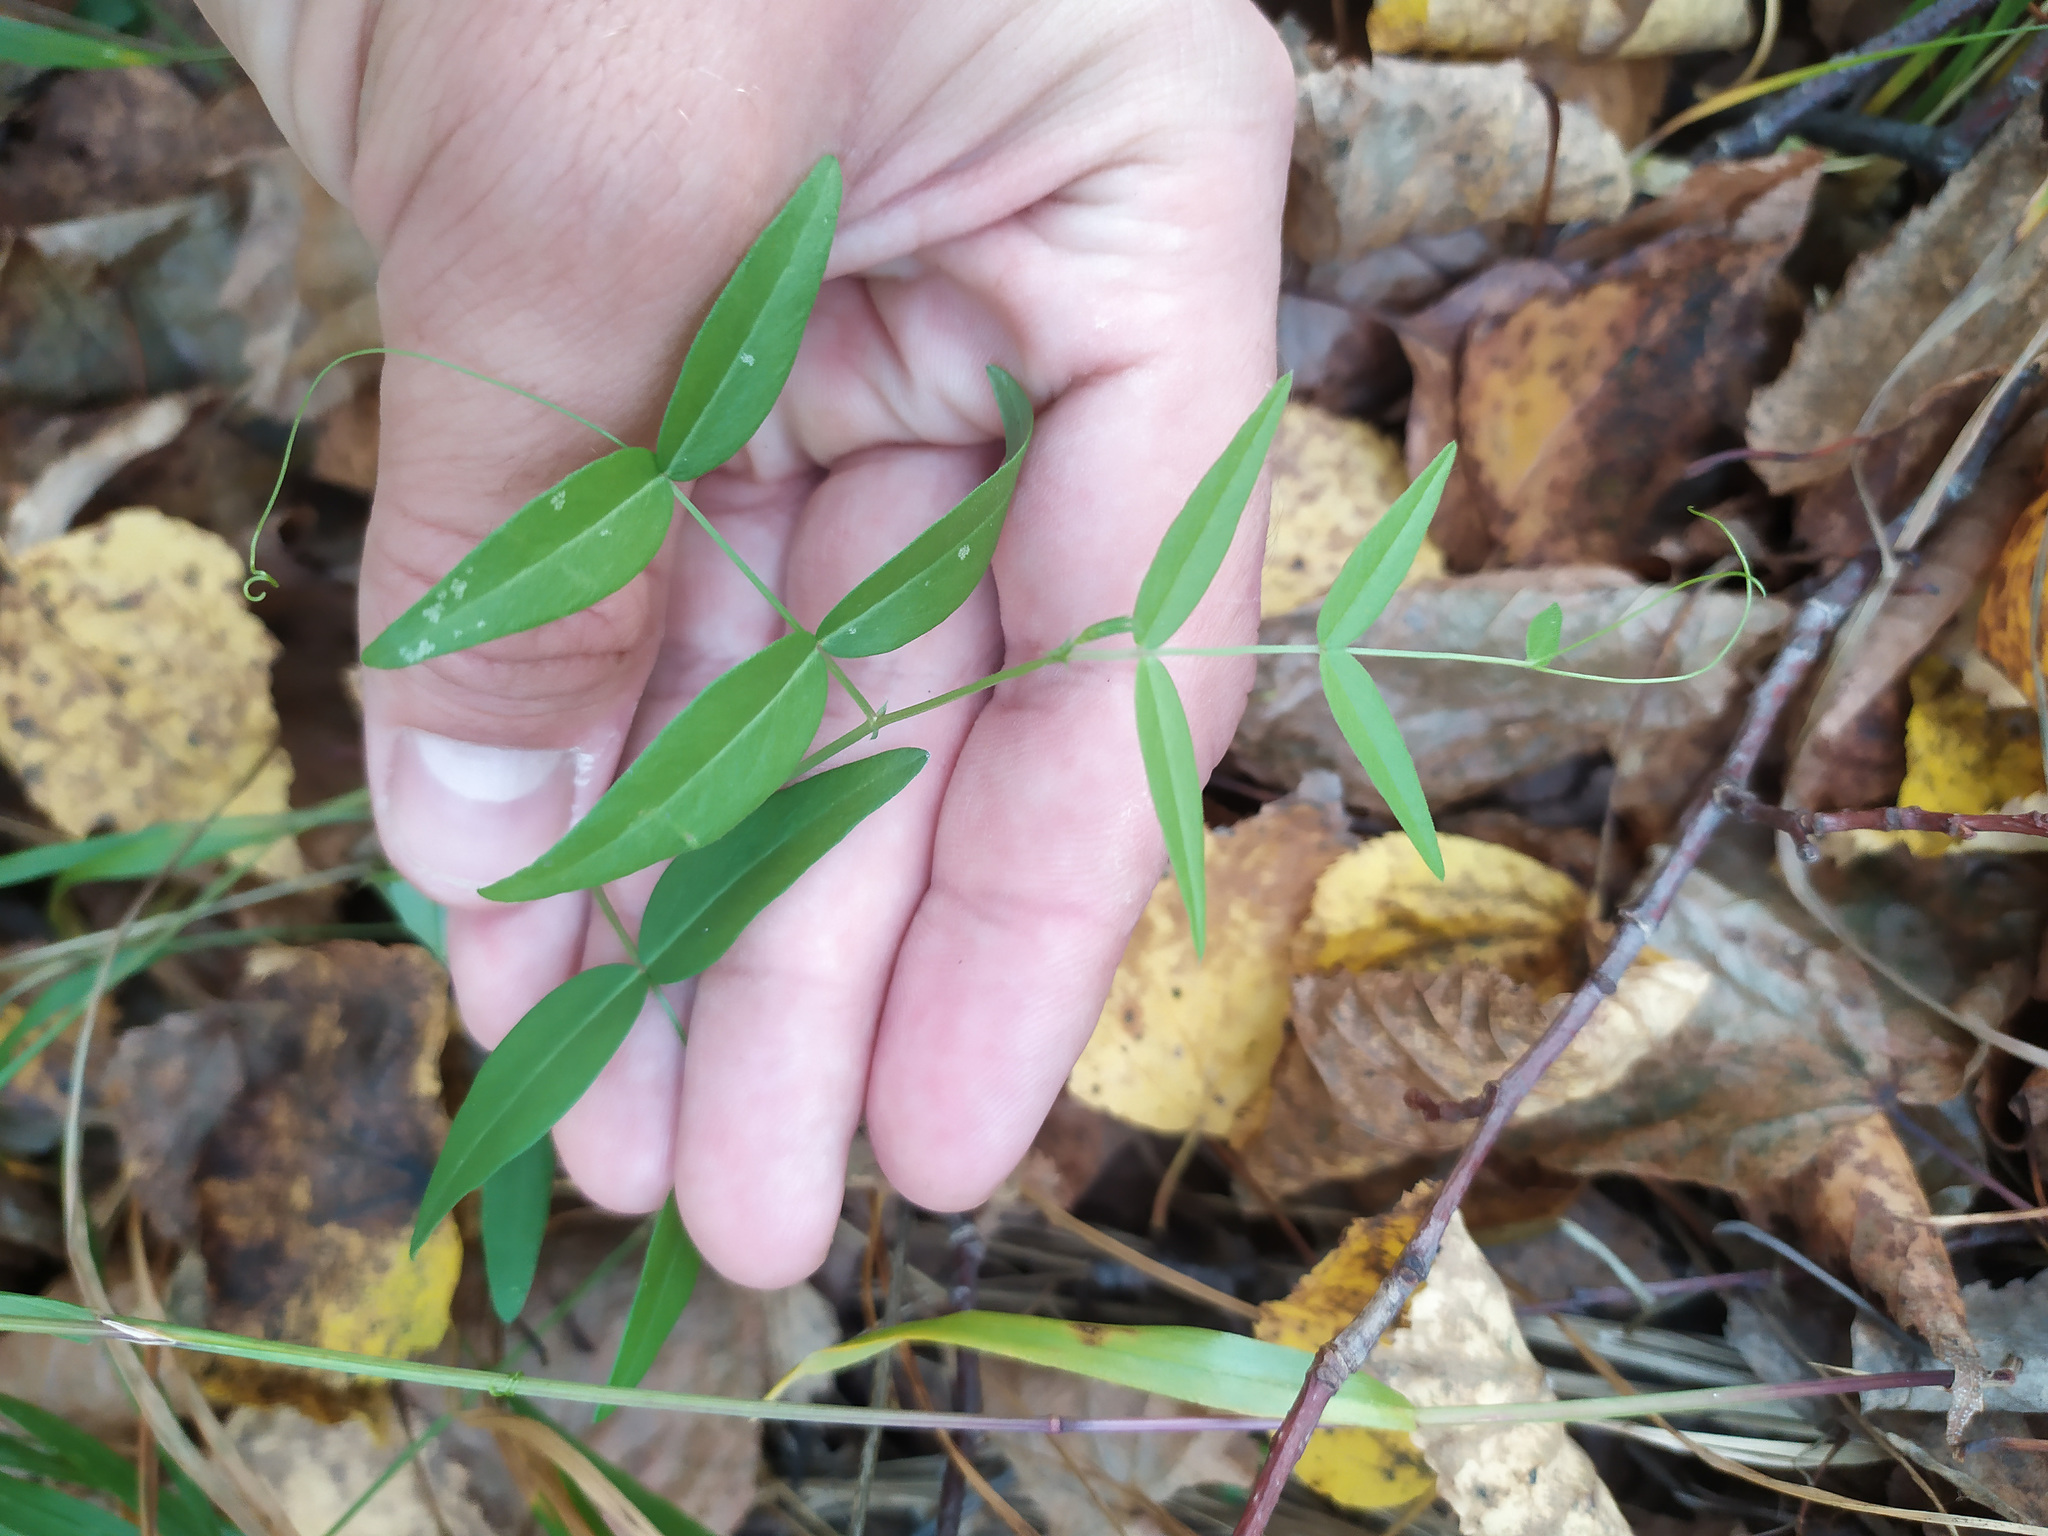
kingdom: Plantae
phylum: Tracheophyta
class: Magnoliopsida
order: Fabales
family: Fabaceae
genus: Vicia
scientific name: Vicia sepium
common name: Bush vetch
